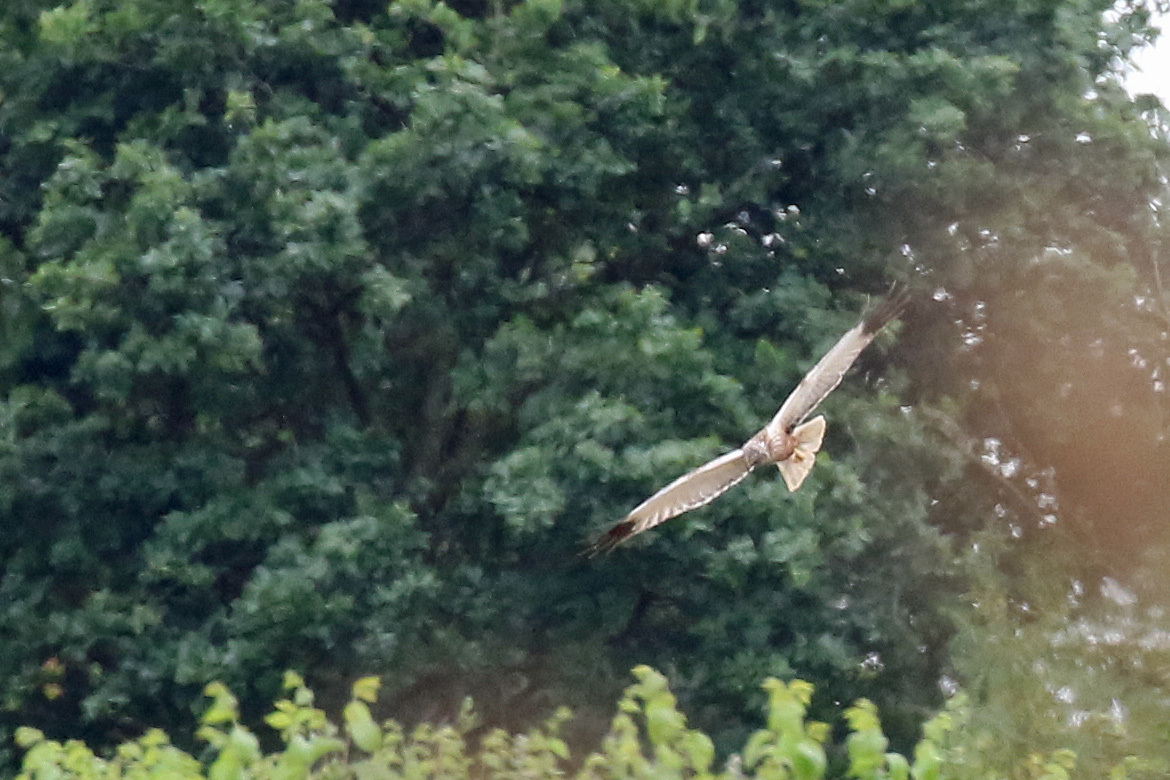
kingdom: Animalia
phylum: Chordata
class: Aves
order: Accipitriformes
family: Accipitridae
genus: Circus
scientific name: Circus aeruginosus
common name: Western marsh harrier
